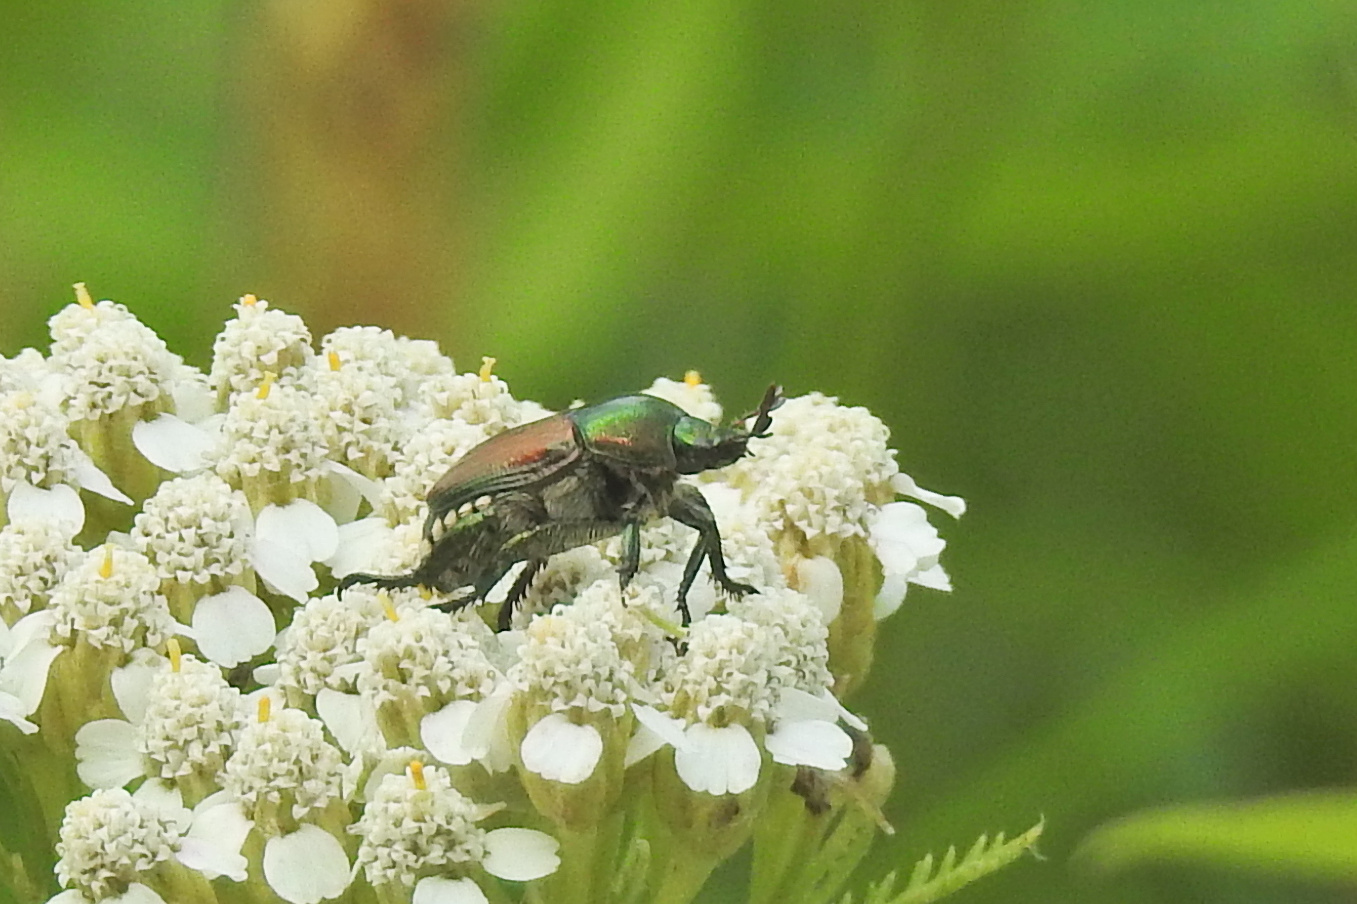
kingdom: Animalia
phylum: Arthropoda
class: Insecta
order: Coleoptera
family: Scarabaeidae
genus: Popillia
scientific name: Popillia japonica
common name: Japanese beetle
